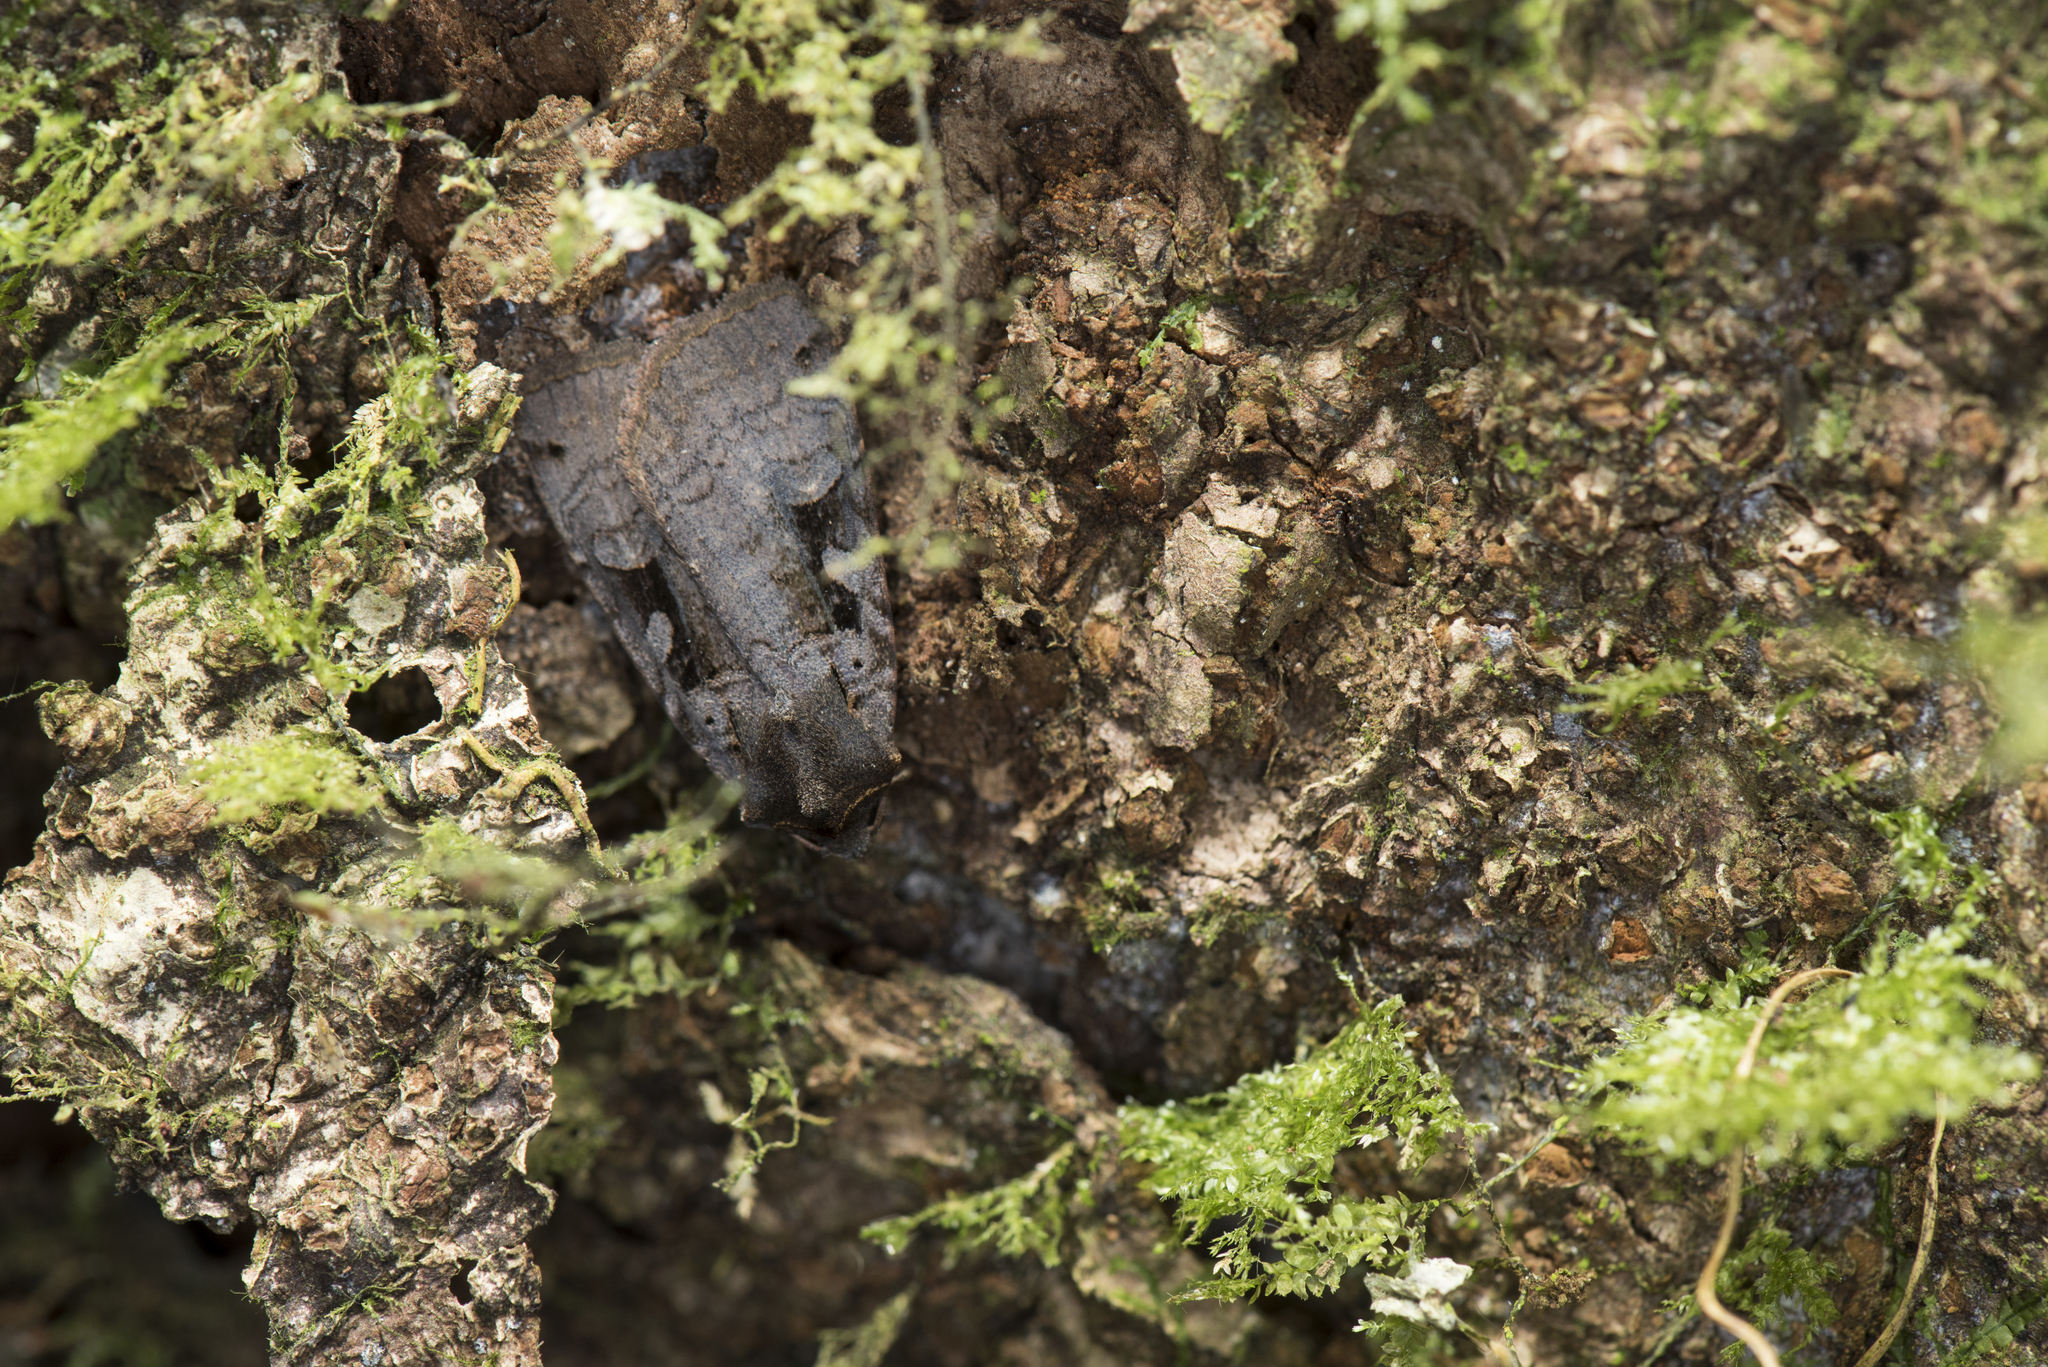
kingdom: Animalia
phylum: Arthropoda
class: Insecta
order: Lepidoptera
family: Noctuidae
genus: Xestia
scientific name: Xestia csoevarii
